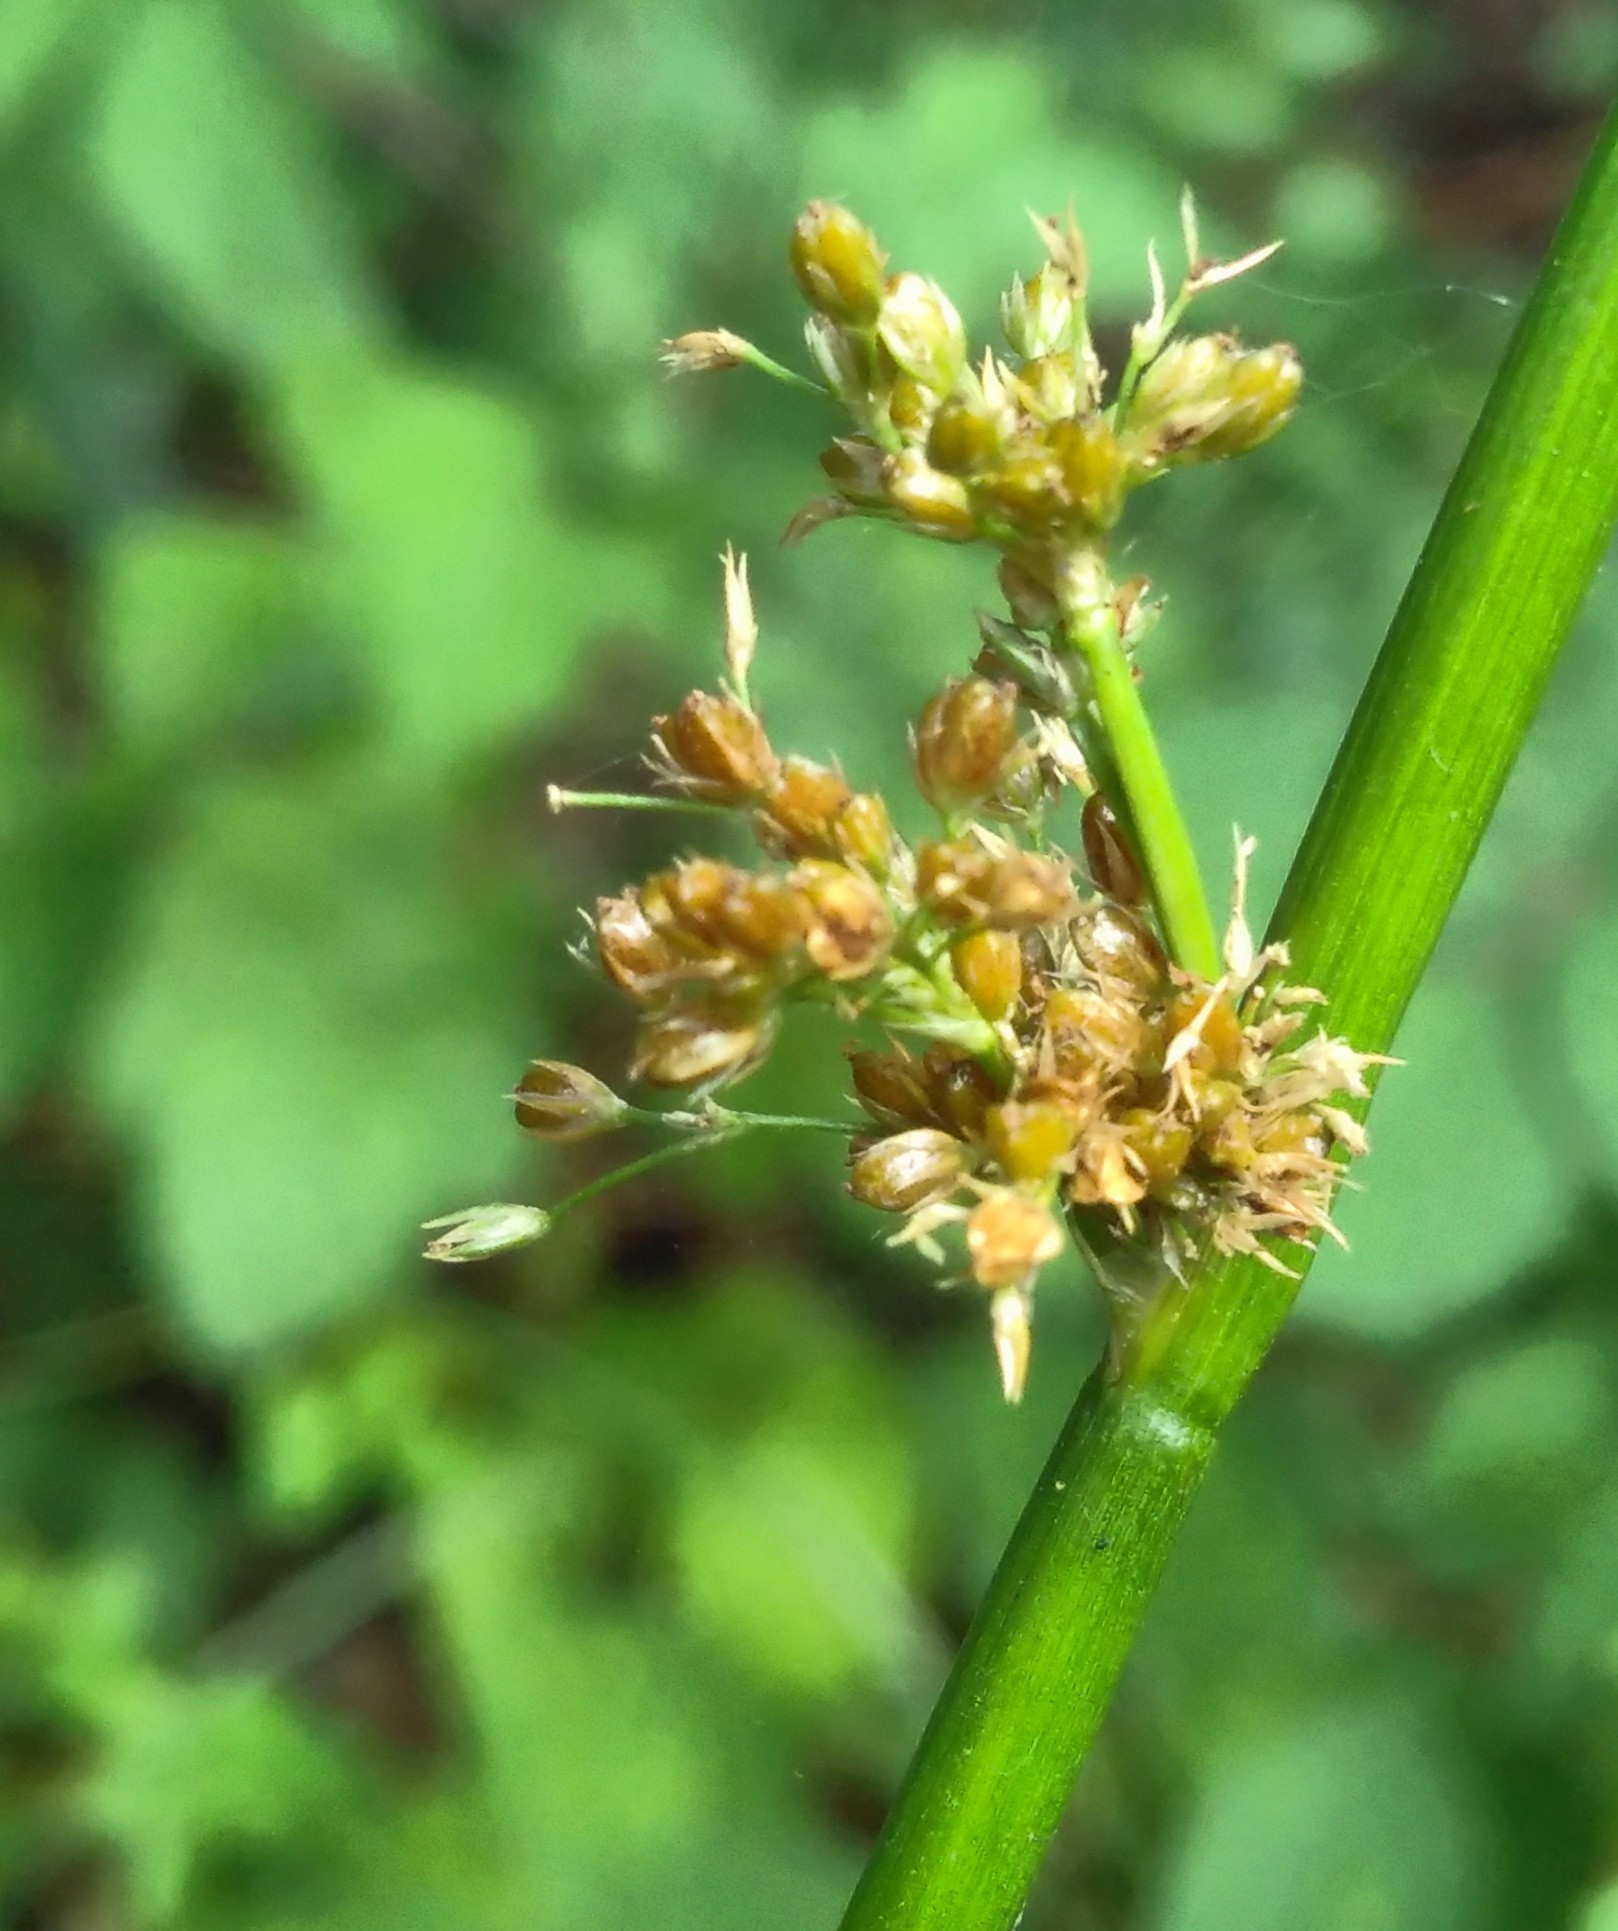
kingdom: Plantae
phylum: Tracheophyta
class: Liliopsida
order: Poales
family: Juncaceae
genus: Juncus
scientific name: Juncus effusus
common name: Soft rush
